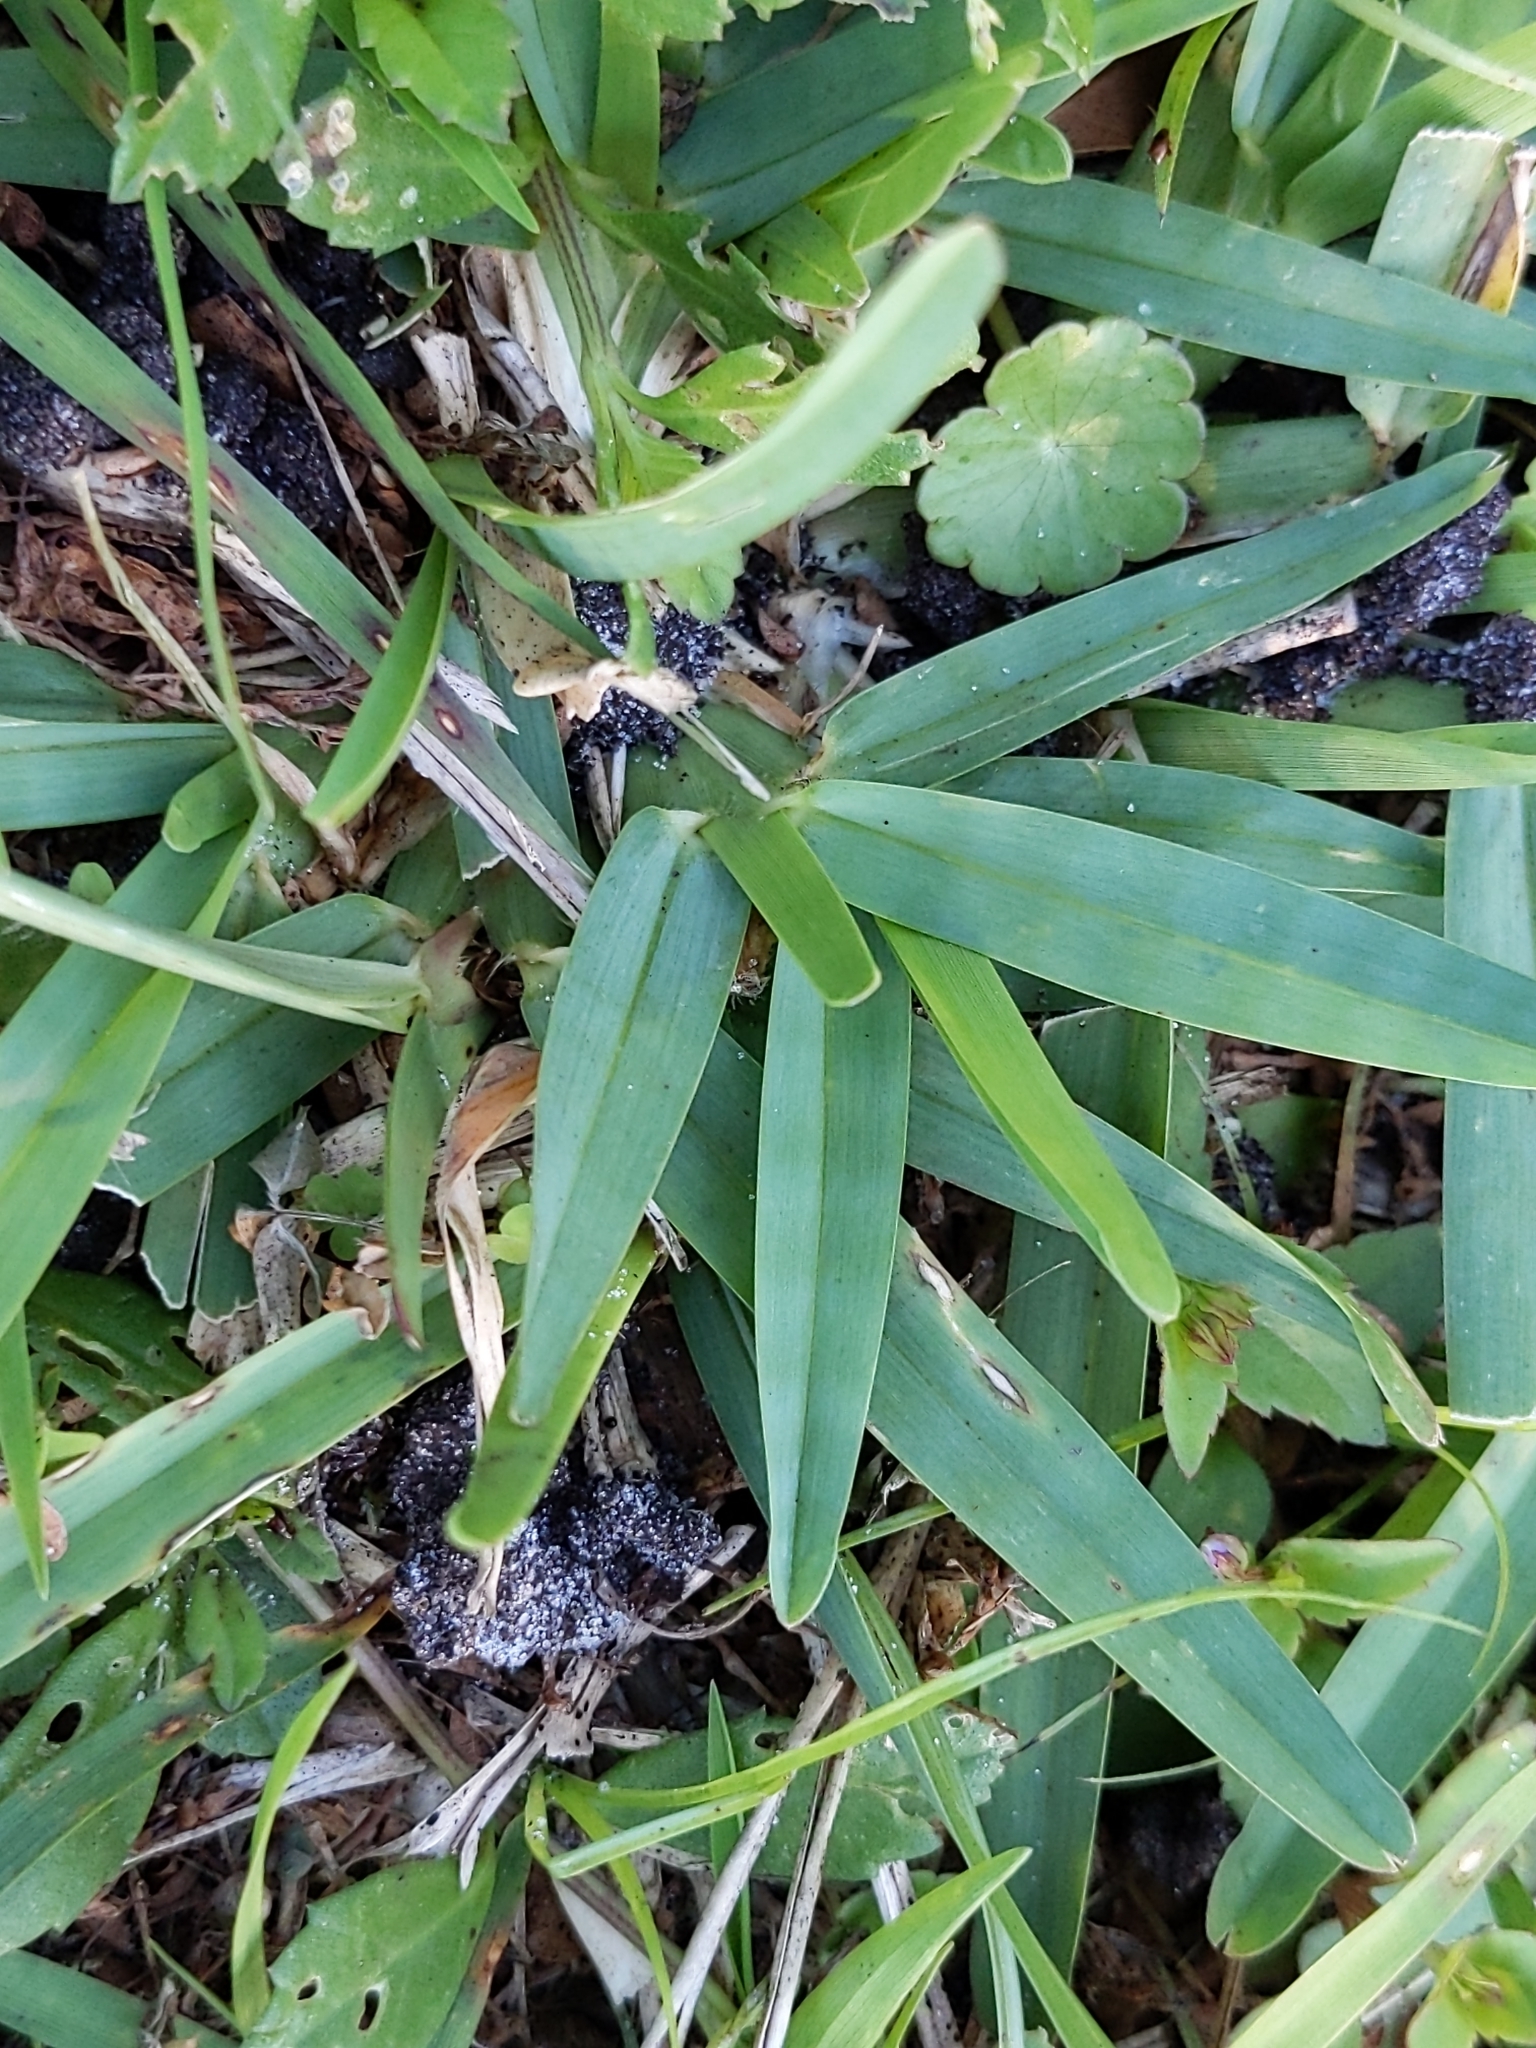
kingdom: Plantae
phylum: Tracheophyta
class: Liliopsida
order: Poales
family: Poaceae
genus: Stenotaphrum
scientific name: Stenotaphrum secundatum
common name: St. augustine grass
